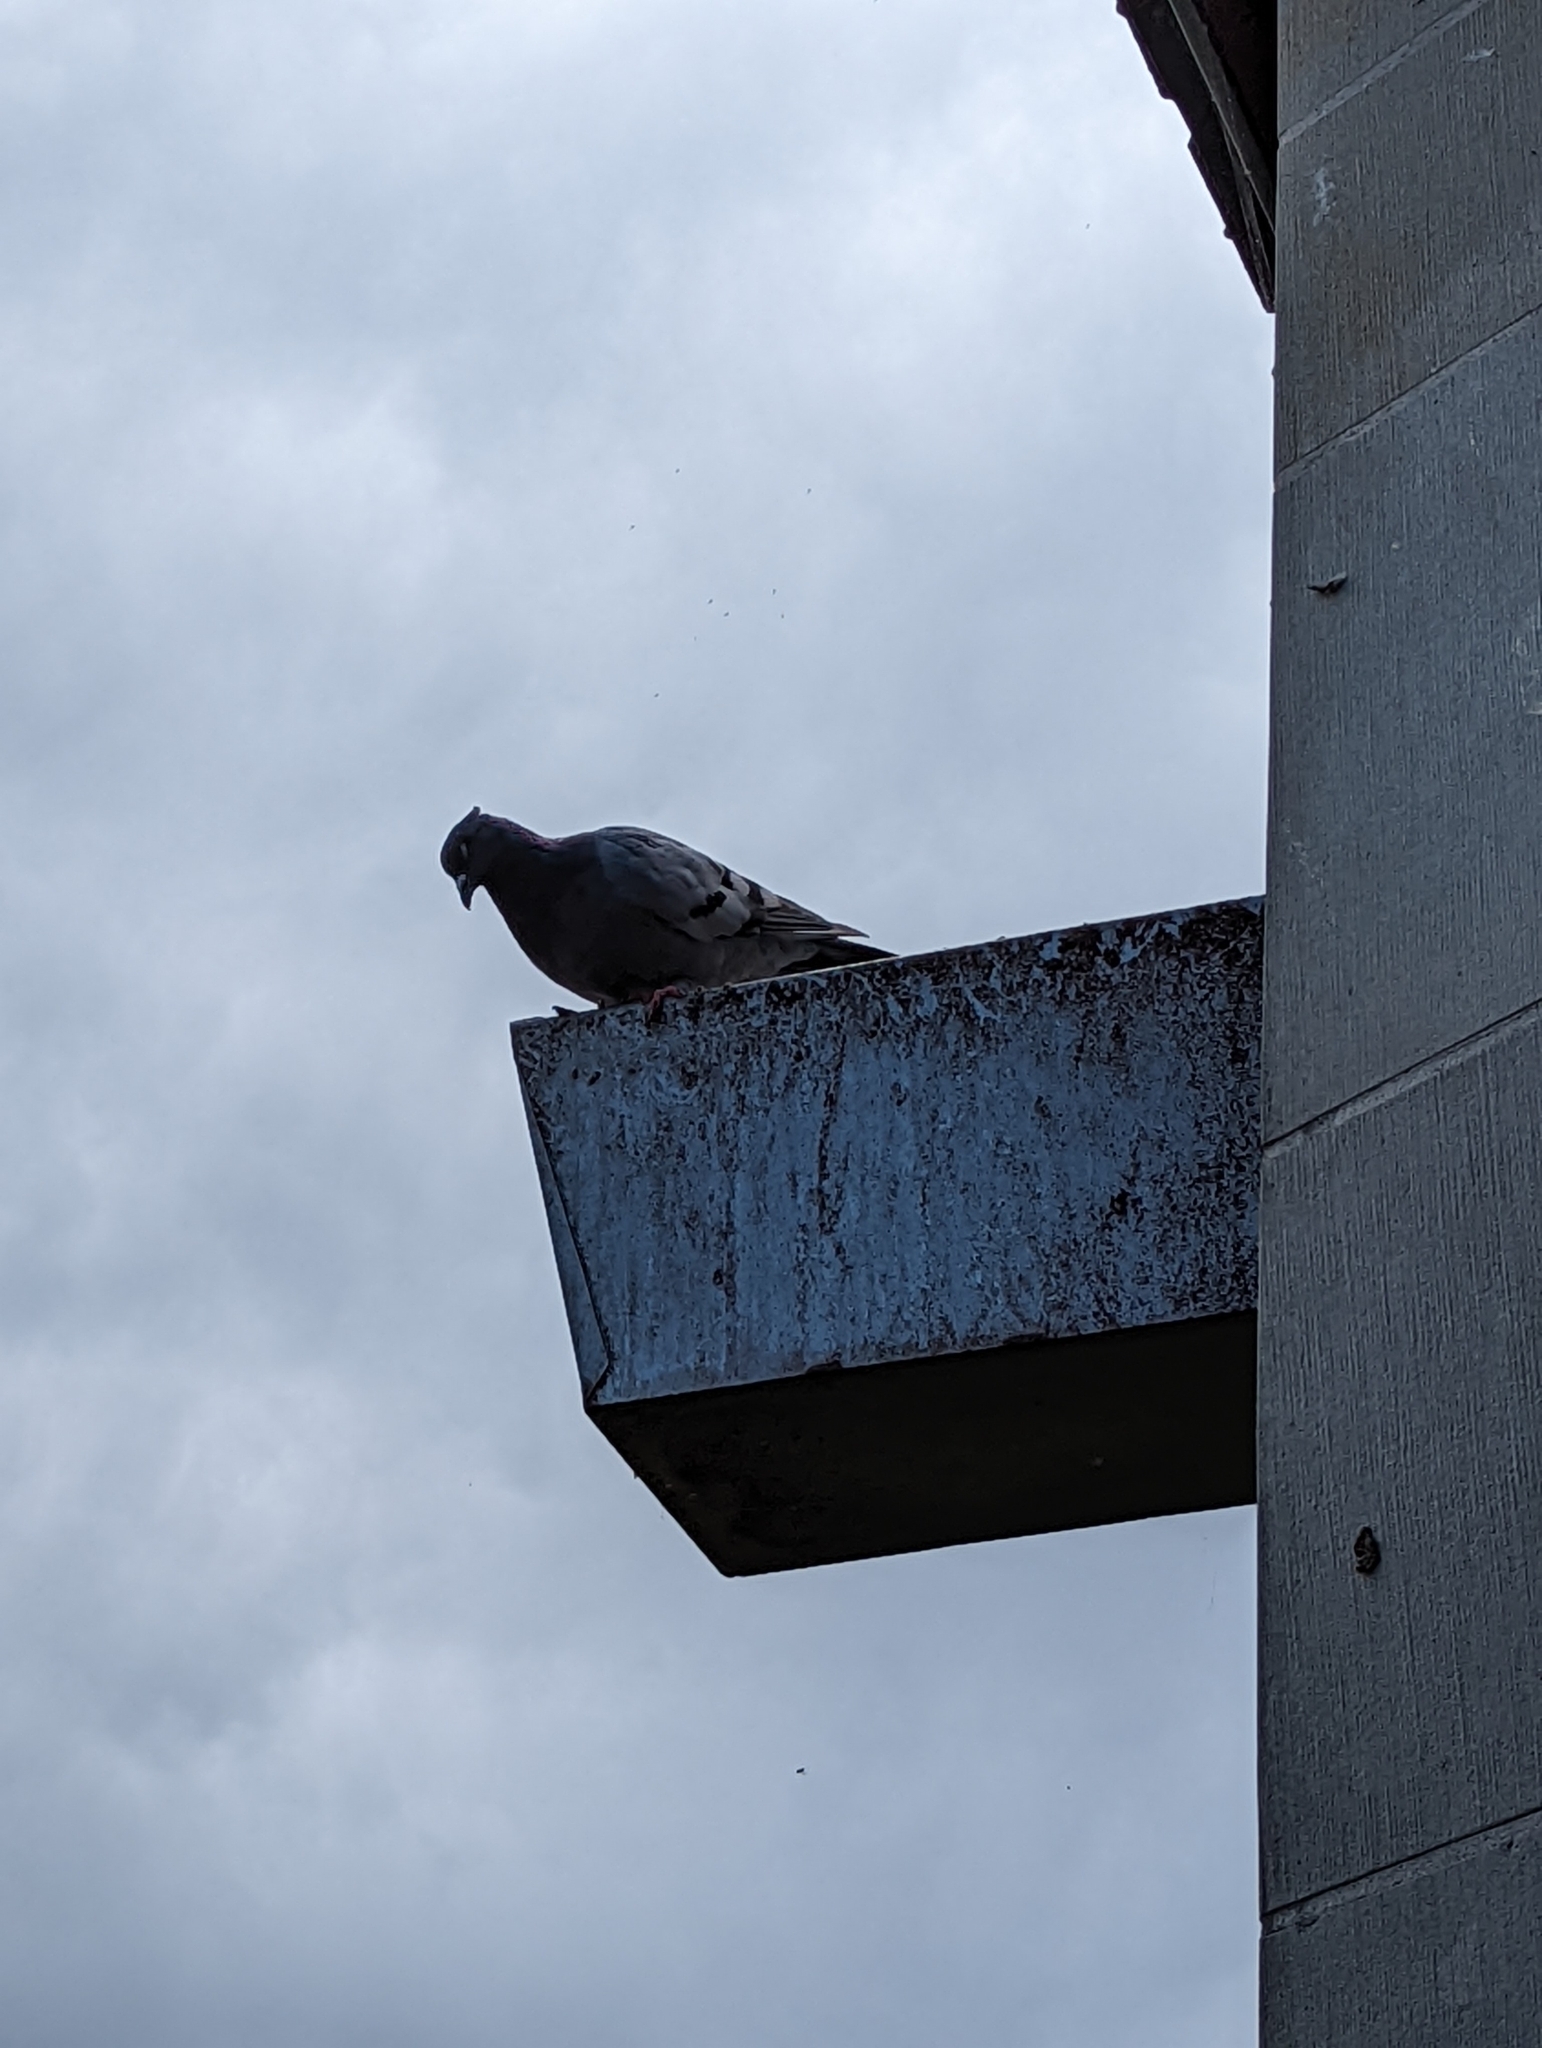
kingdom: Animalia
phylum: Chordata
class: Aves
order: Columbiformes
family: Columbidae
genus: Columba
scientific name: Columba livia
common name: Rock pigeon
